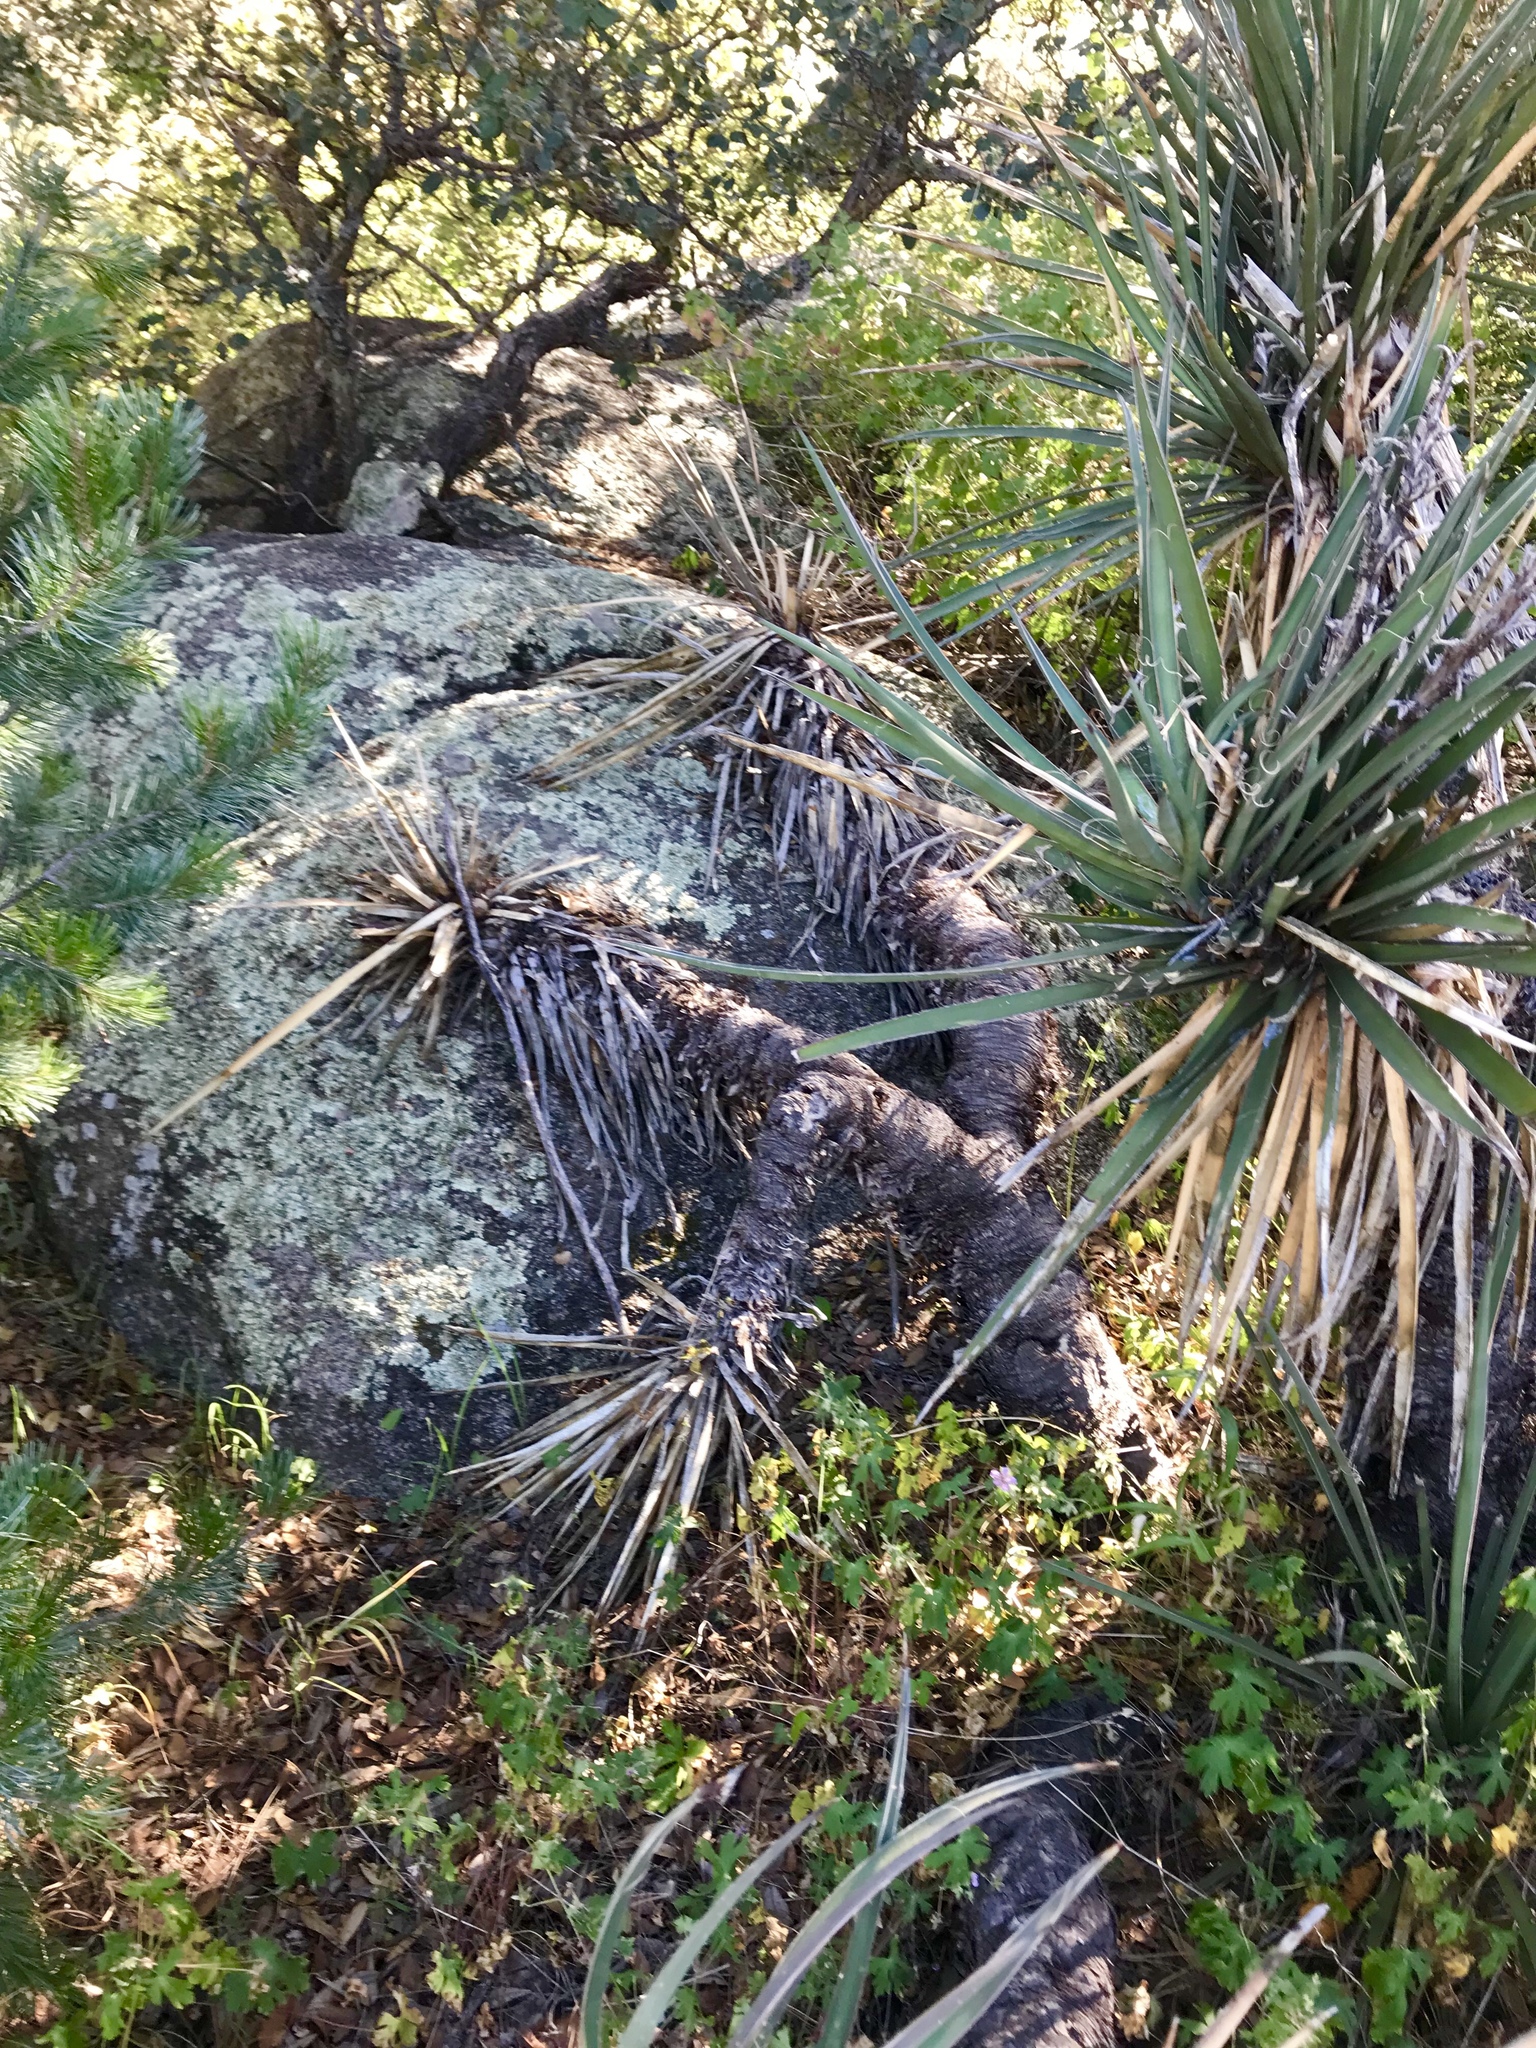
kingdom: Plantae
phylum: Tracheophyta
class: Liliopsida
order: Asparagales
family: Asparagaceae
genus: Yucca
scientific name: Yucca baccata
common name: Banana yucca
